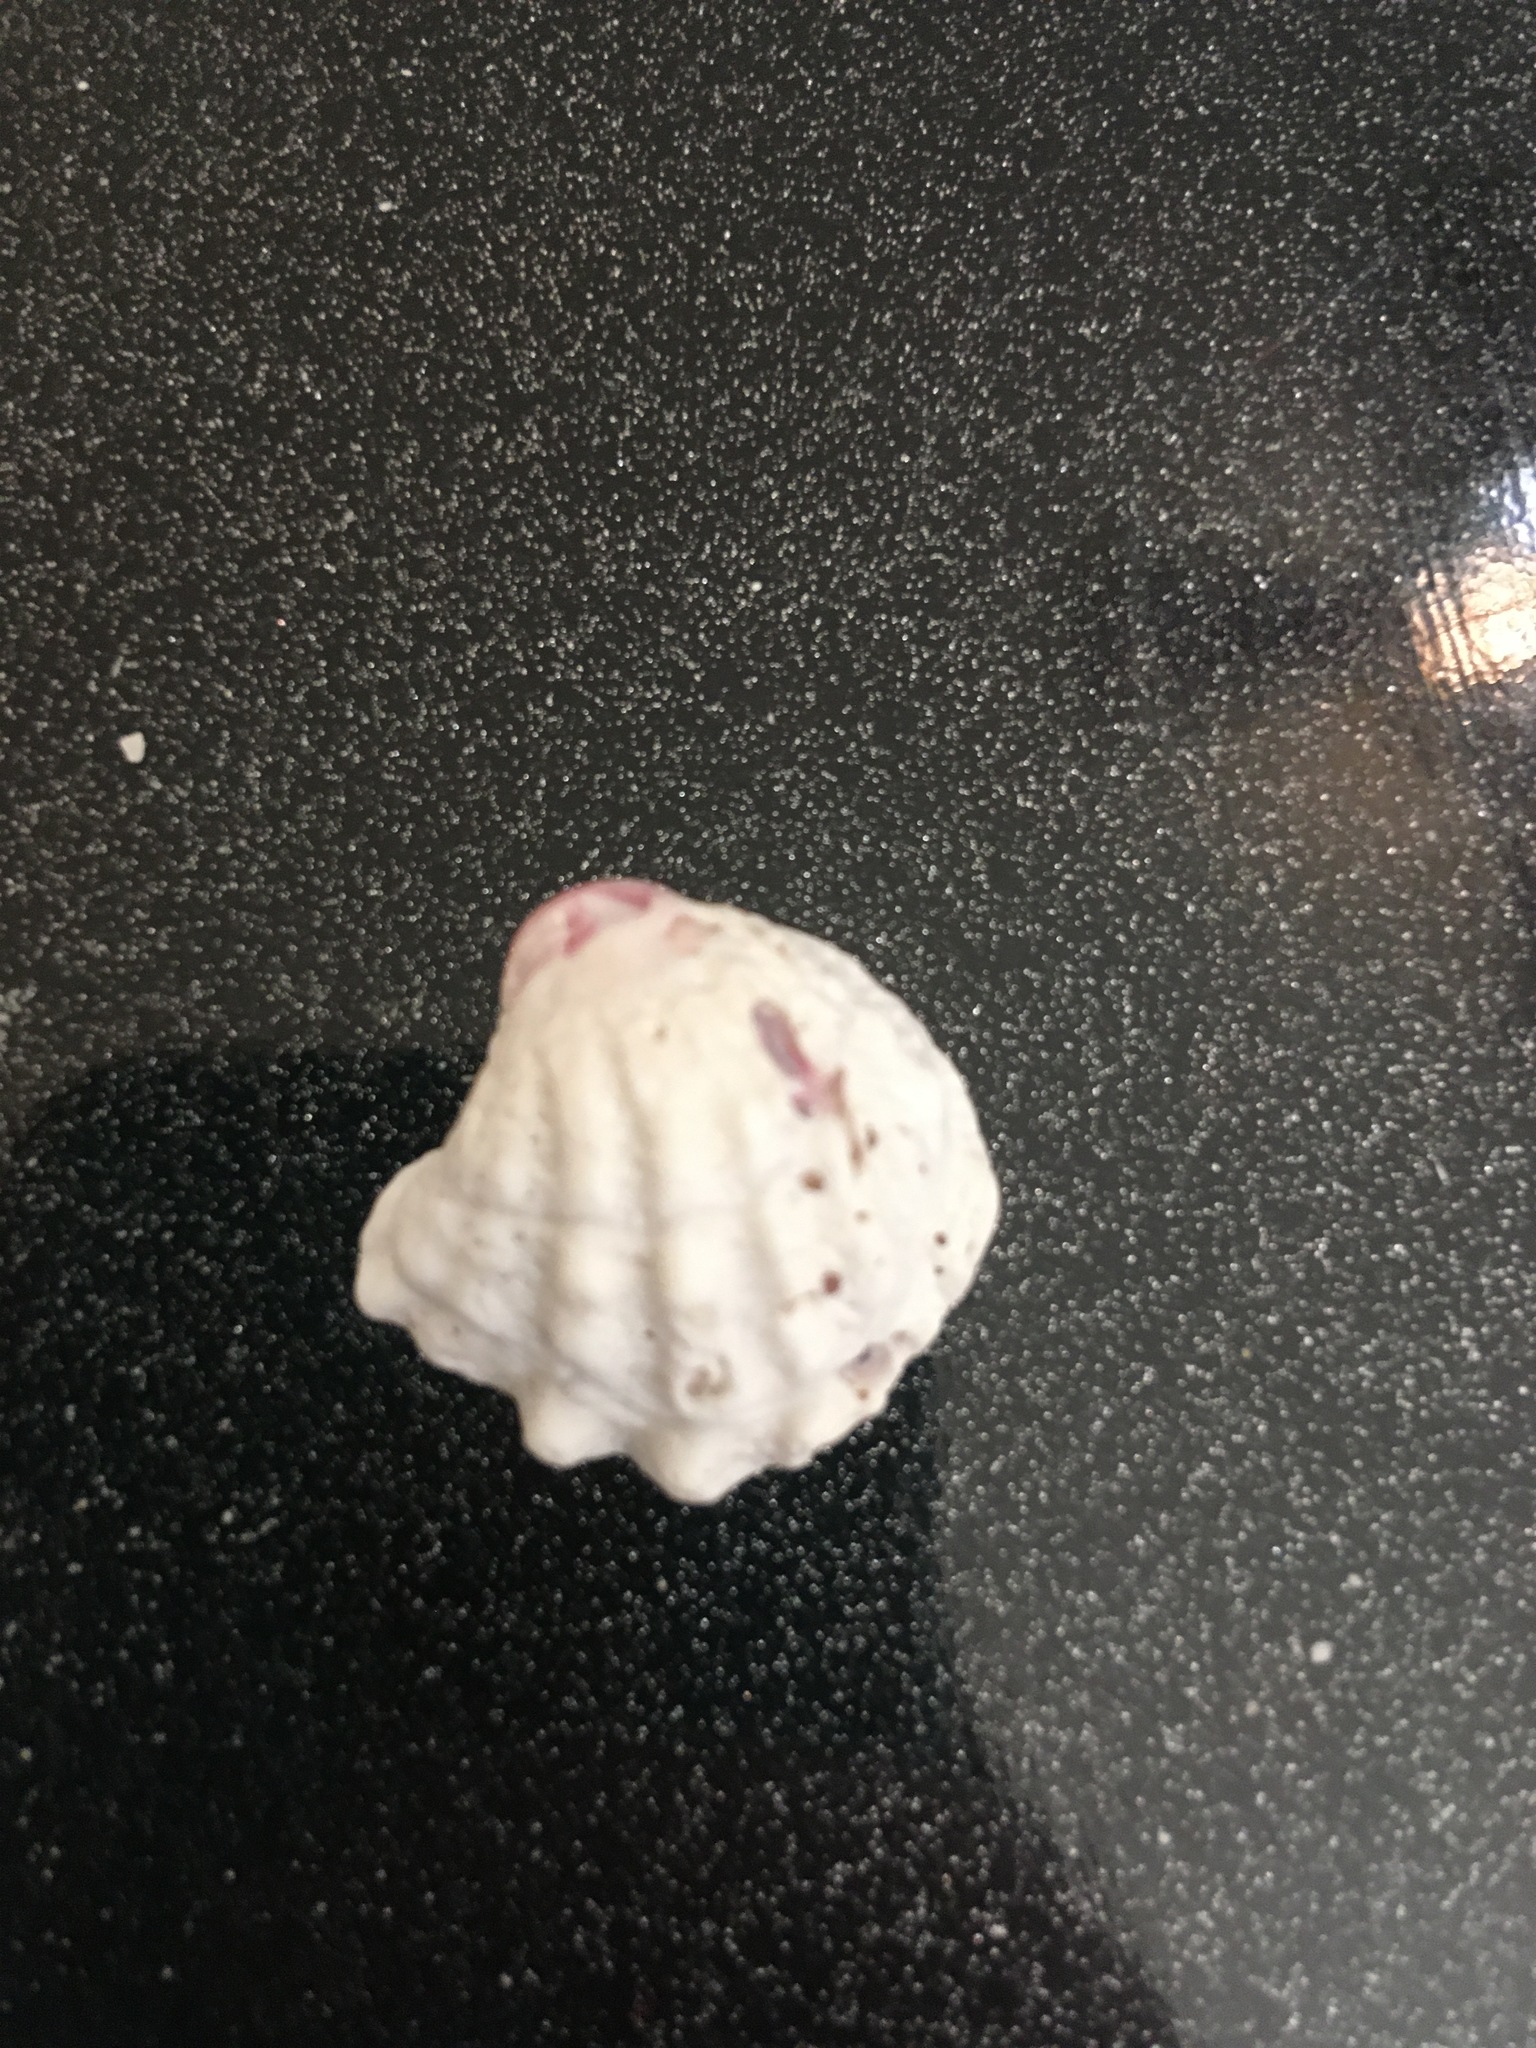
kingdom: Animalia
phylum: Mollusca
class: Bivalvia
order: Venerida
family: Chamidae
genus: Arcinella
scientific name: Arcinella cornuta
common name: Florida spiny jewel box
